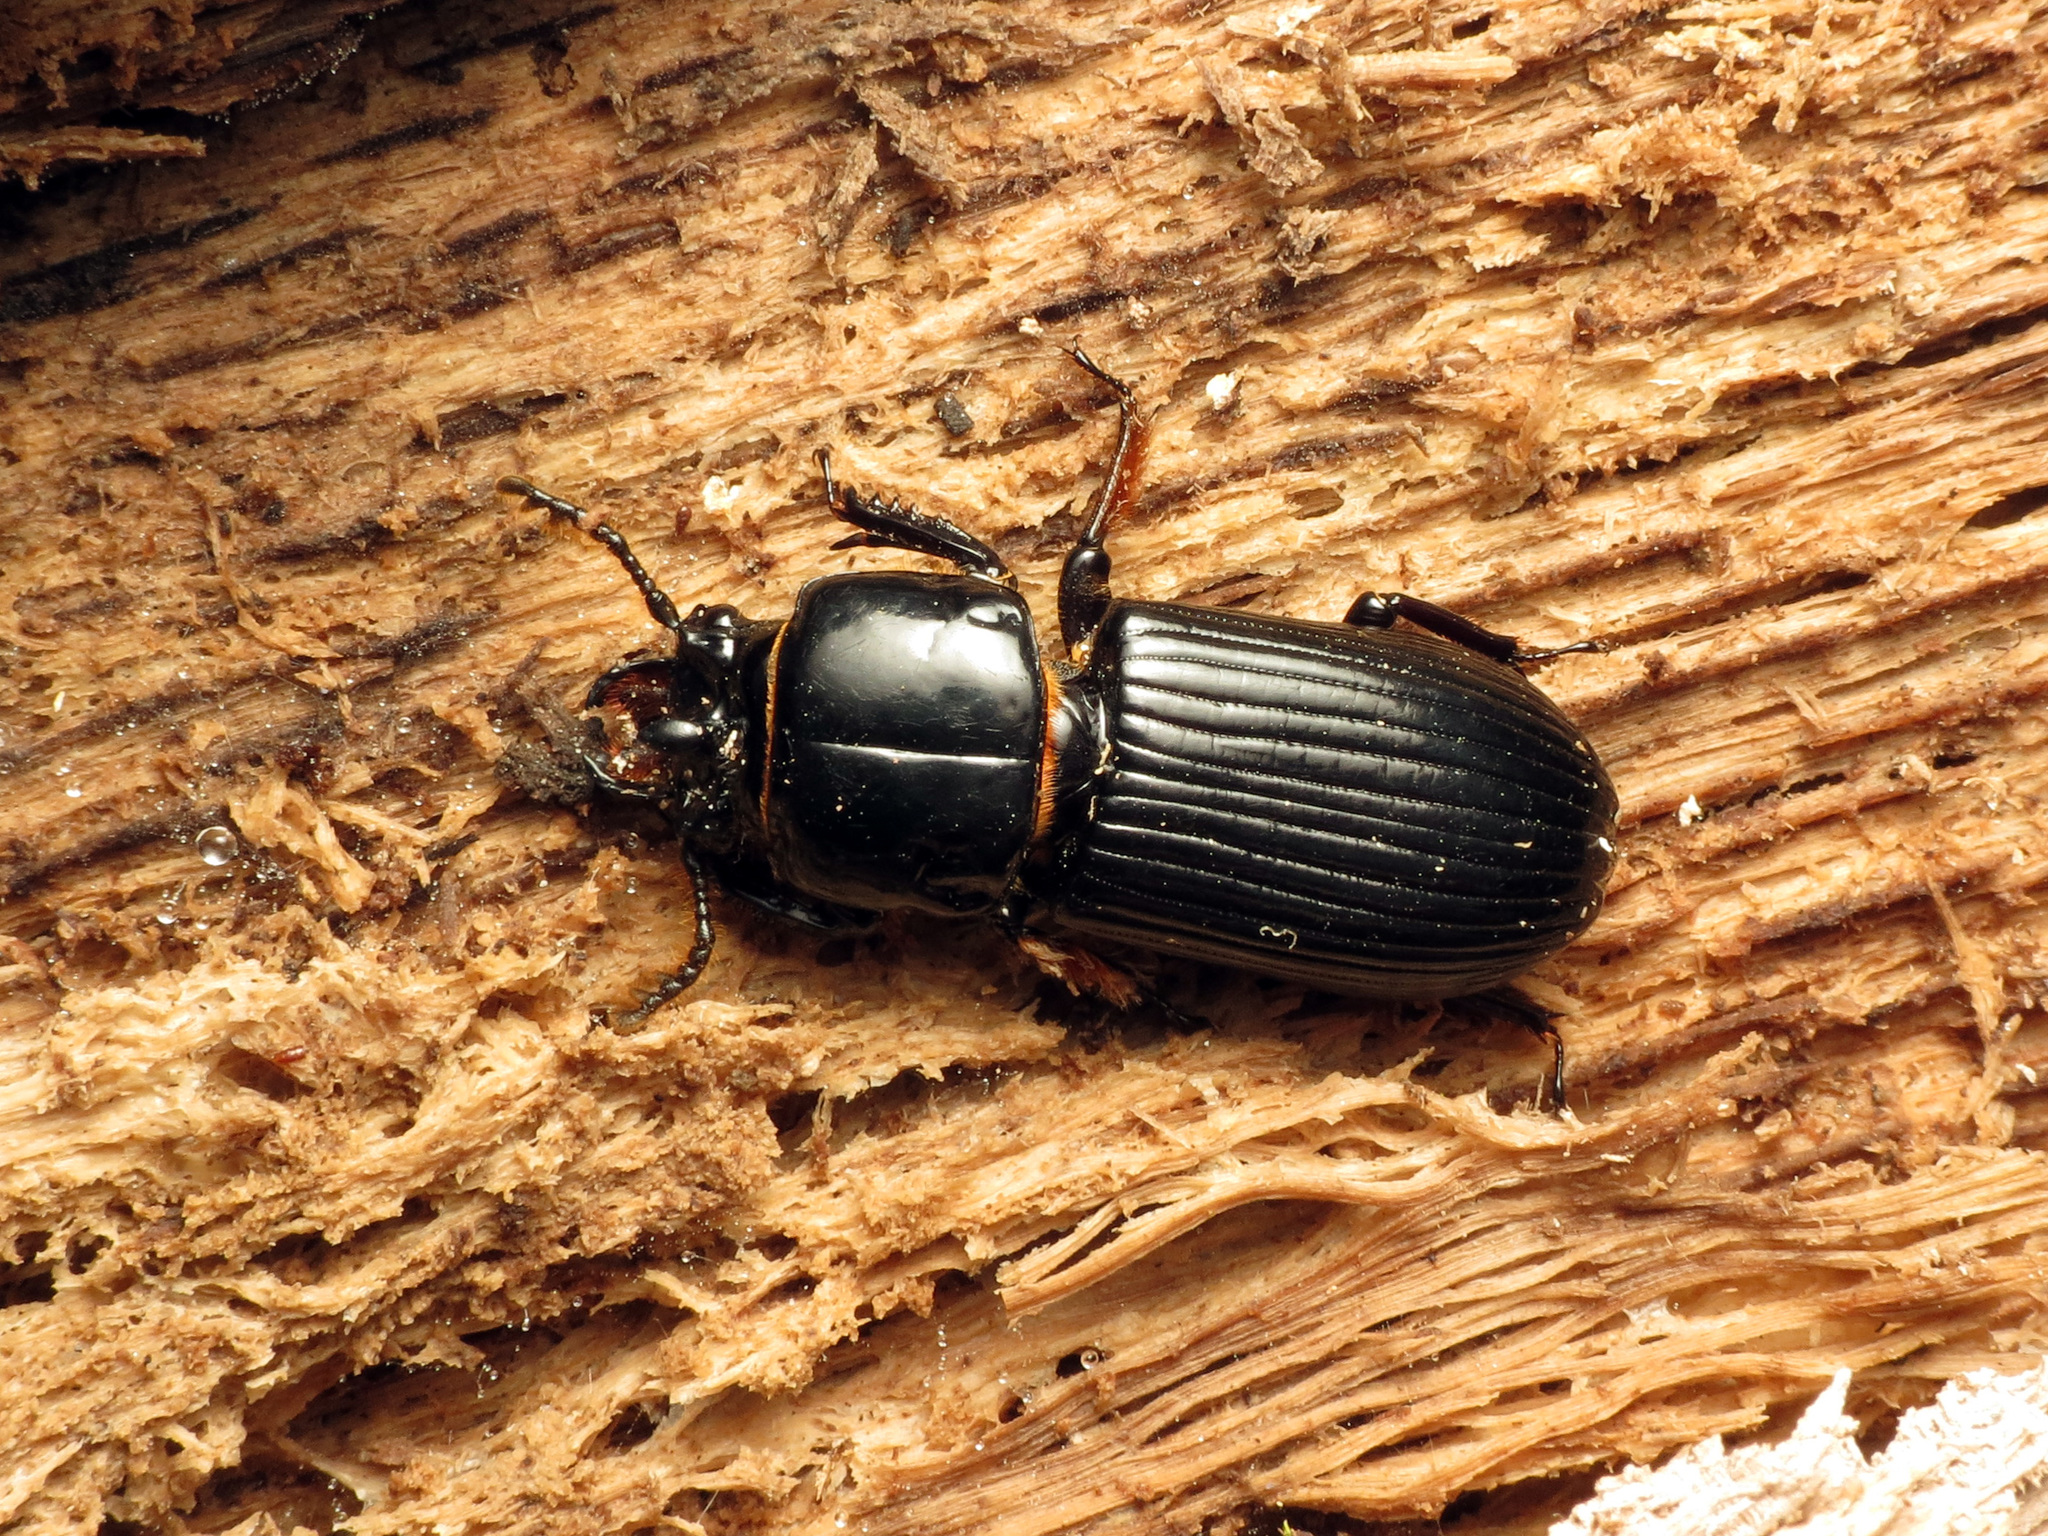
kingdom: Animalia
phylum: Arthropoda
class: Insecta
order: Coleoptera
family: Passalidae
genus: Odontotaenius
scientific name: Odontotaenius disjunctus
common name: Patent leather beetle
